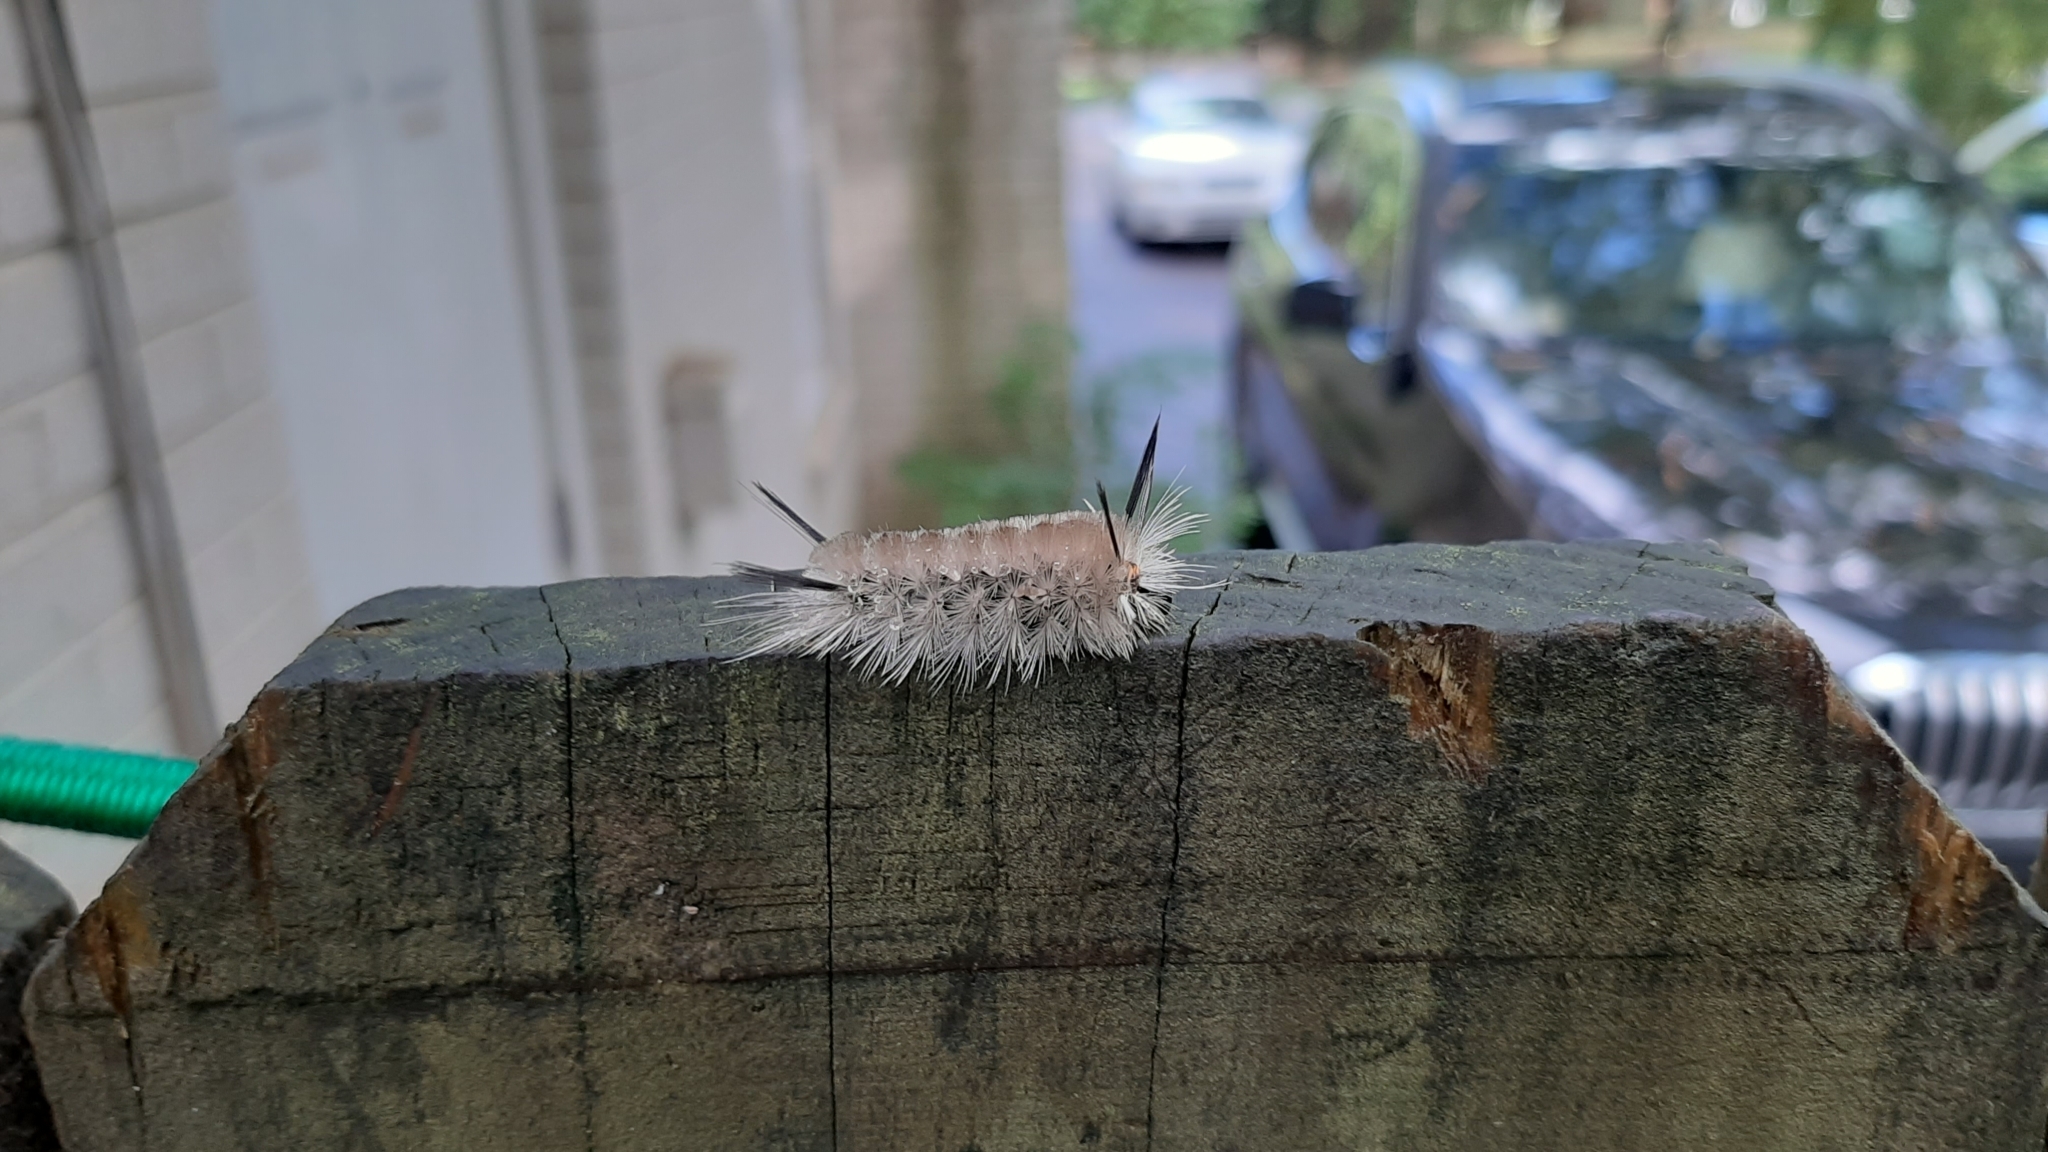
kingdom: Animalia
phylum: Arthropoda
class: Insecta
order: Lepidoptera
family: Erebidae
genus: Halysidota
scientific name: Halysidota tessellaris
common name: Banded tussock moth
